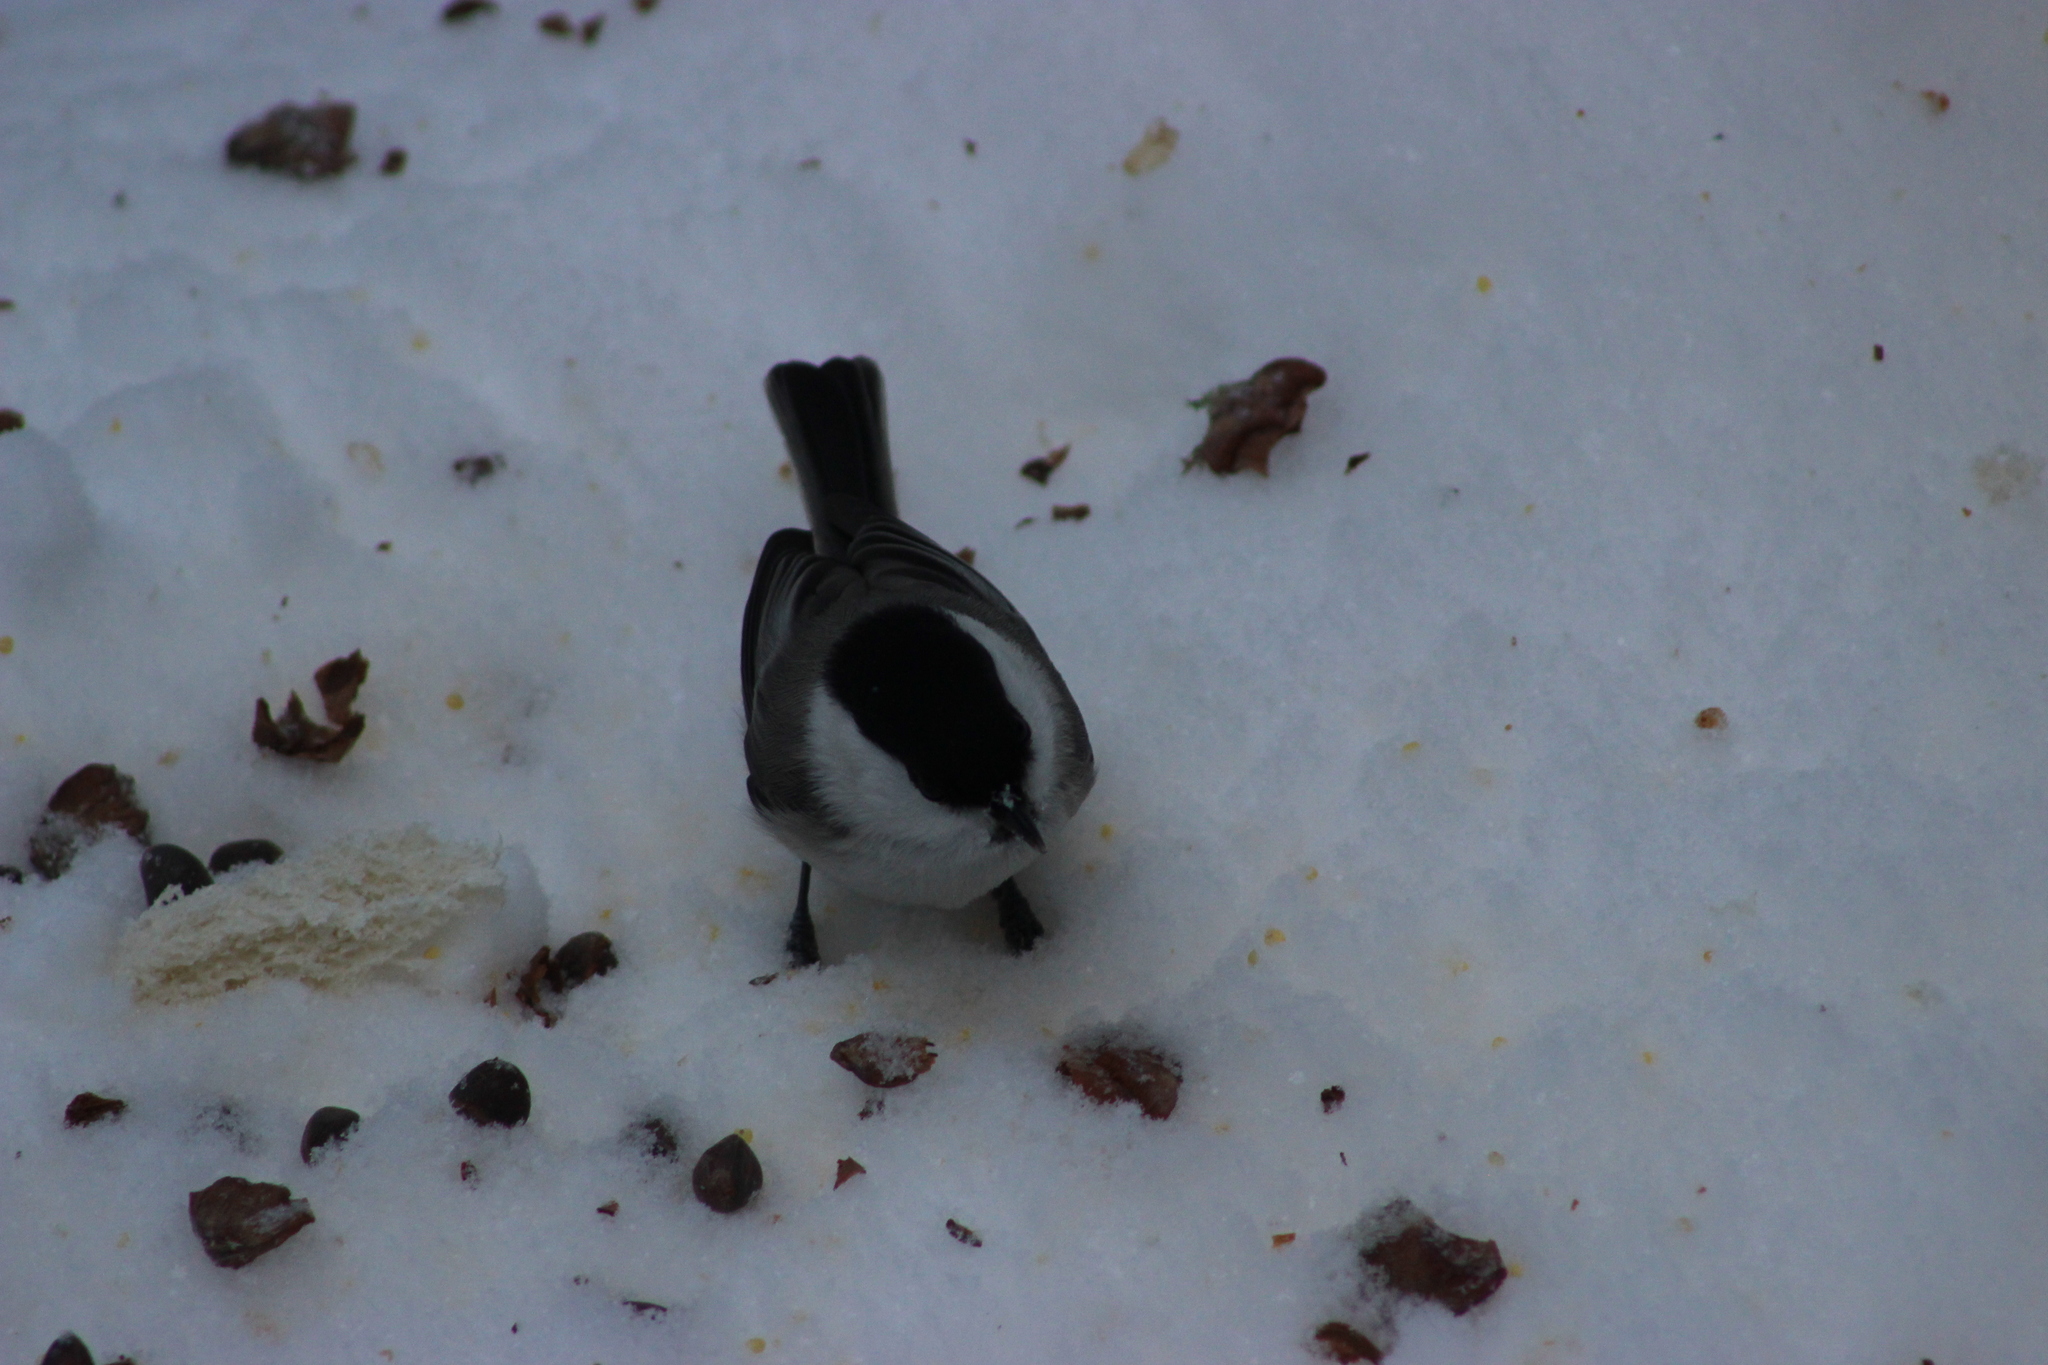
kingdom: Animalia
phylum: Chordata
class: Aves
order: Passeriformes
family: Paridae
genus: Poecile
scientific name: Poecile montanus
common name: Willow tit
